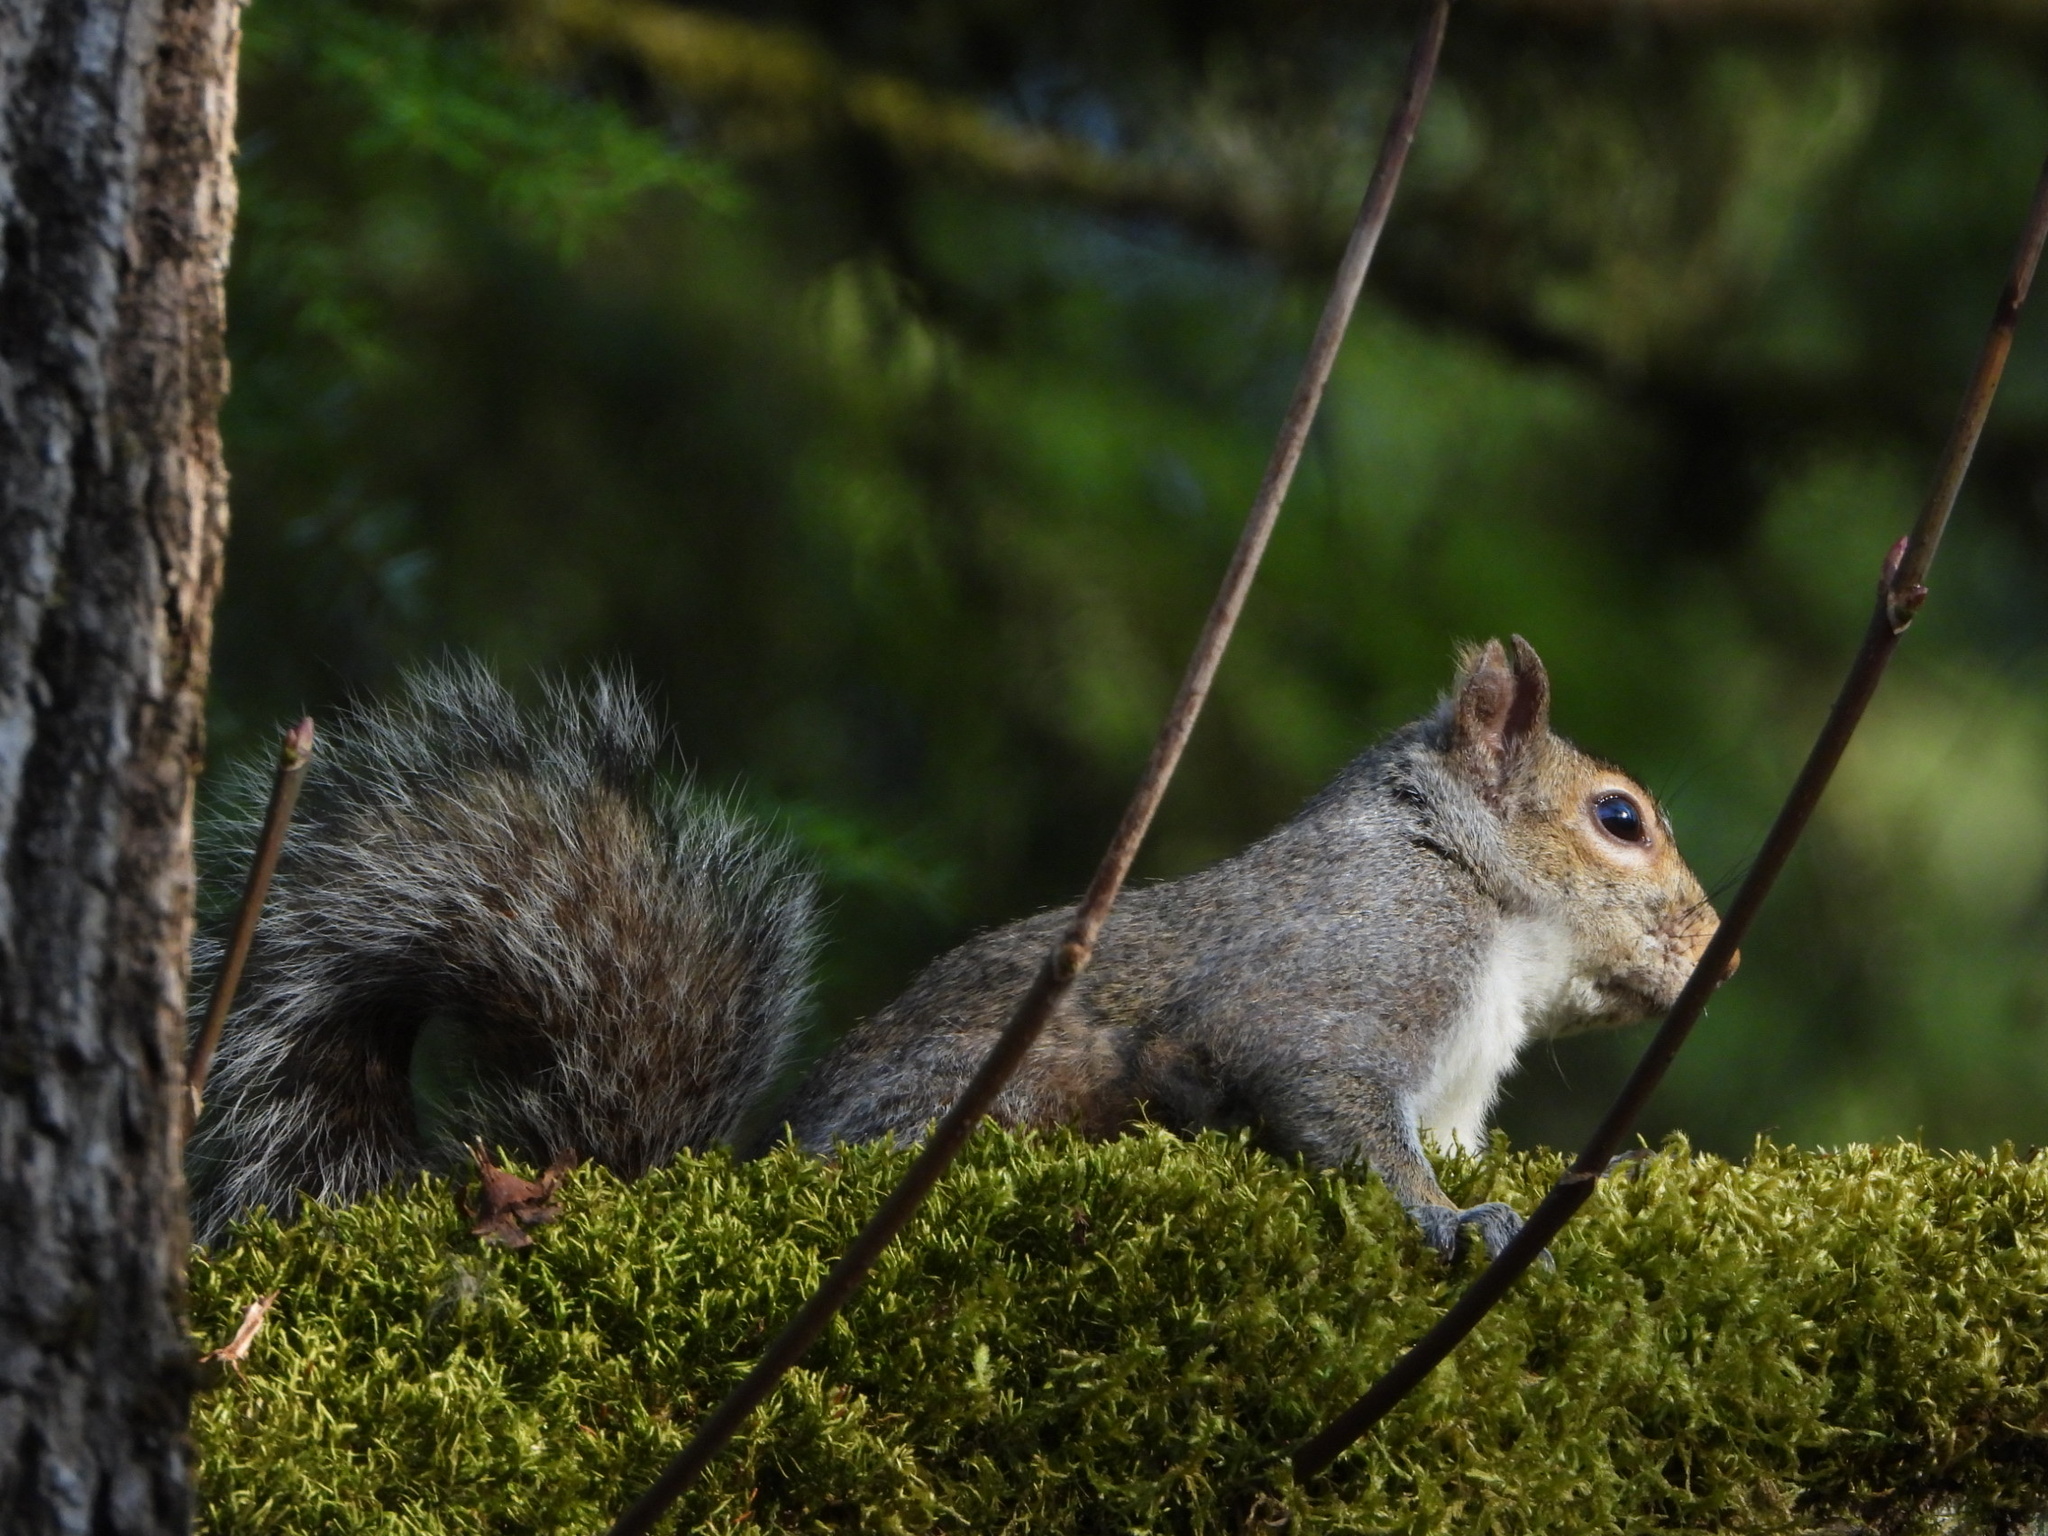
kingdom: Animalia
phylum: Chordata
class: Mammalia
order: Rodentia
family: Sciuridae
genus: Sciurus
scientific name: Sciurus carolinensis
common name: Eastern gray squirrel
